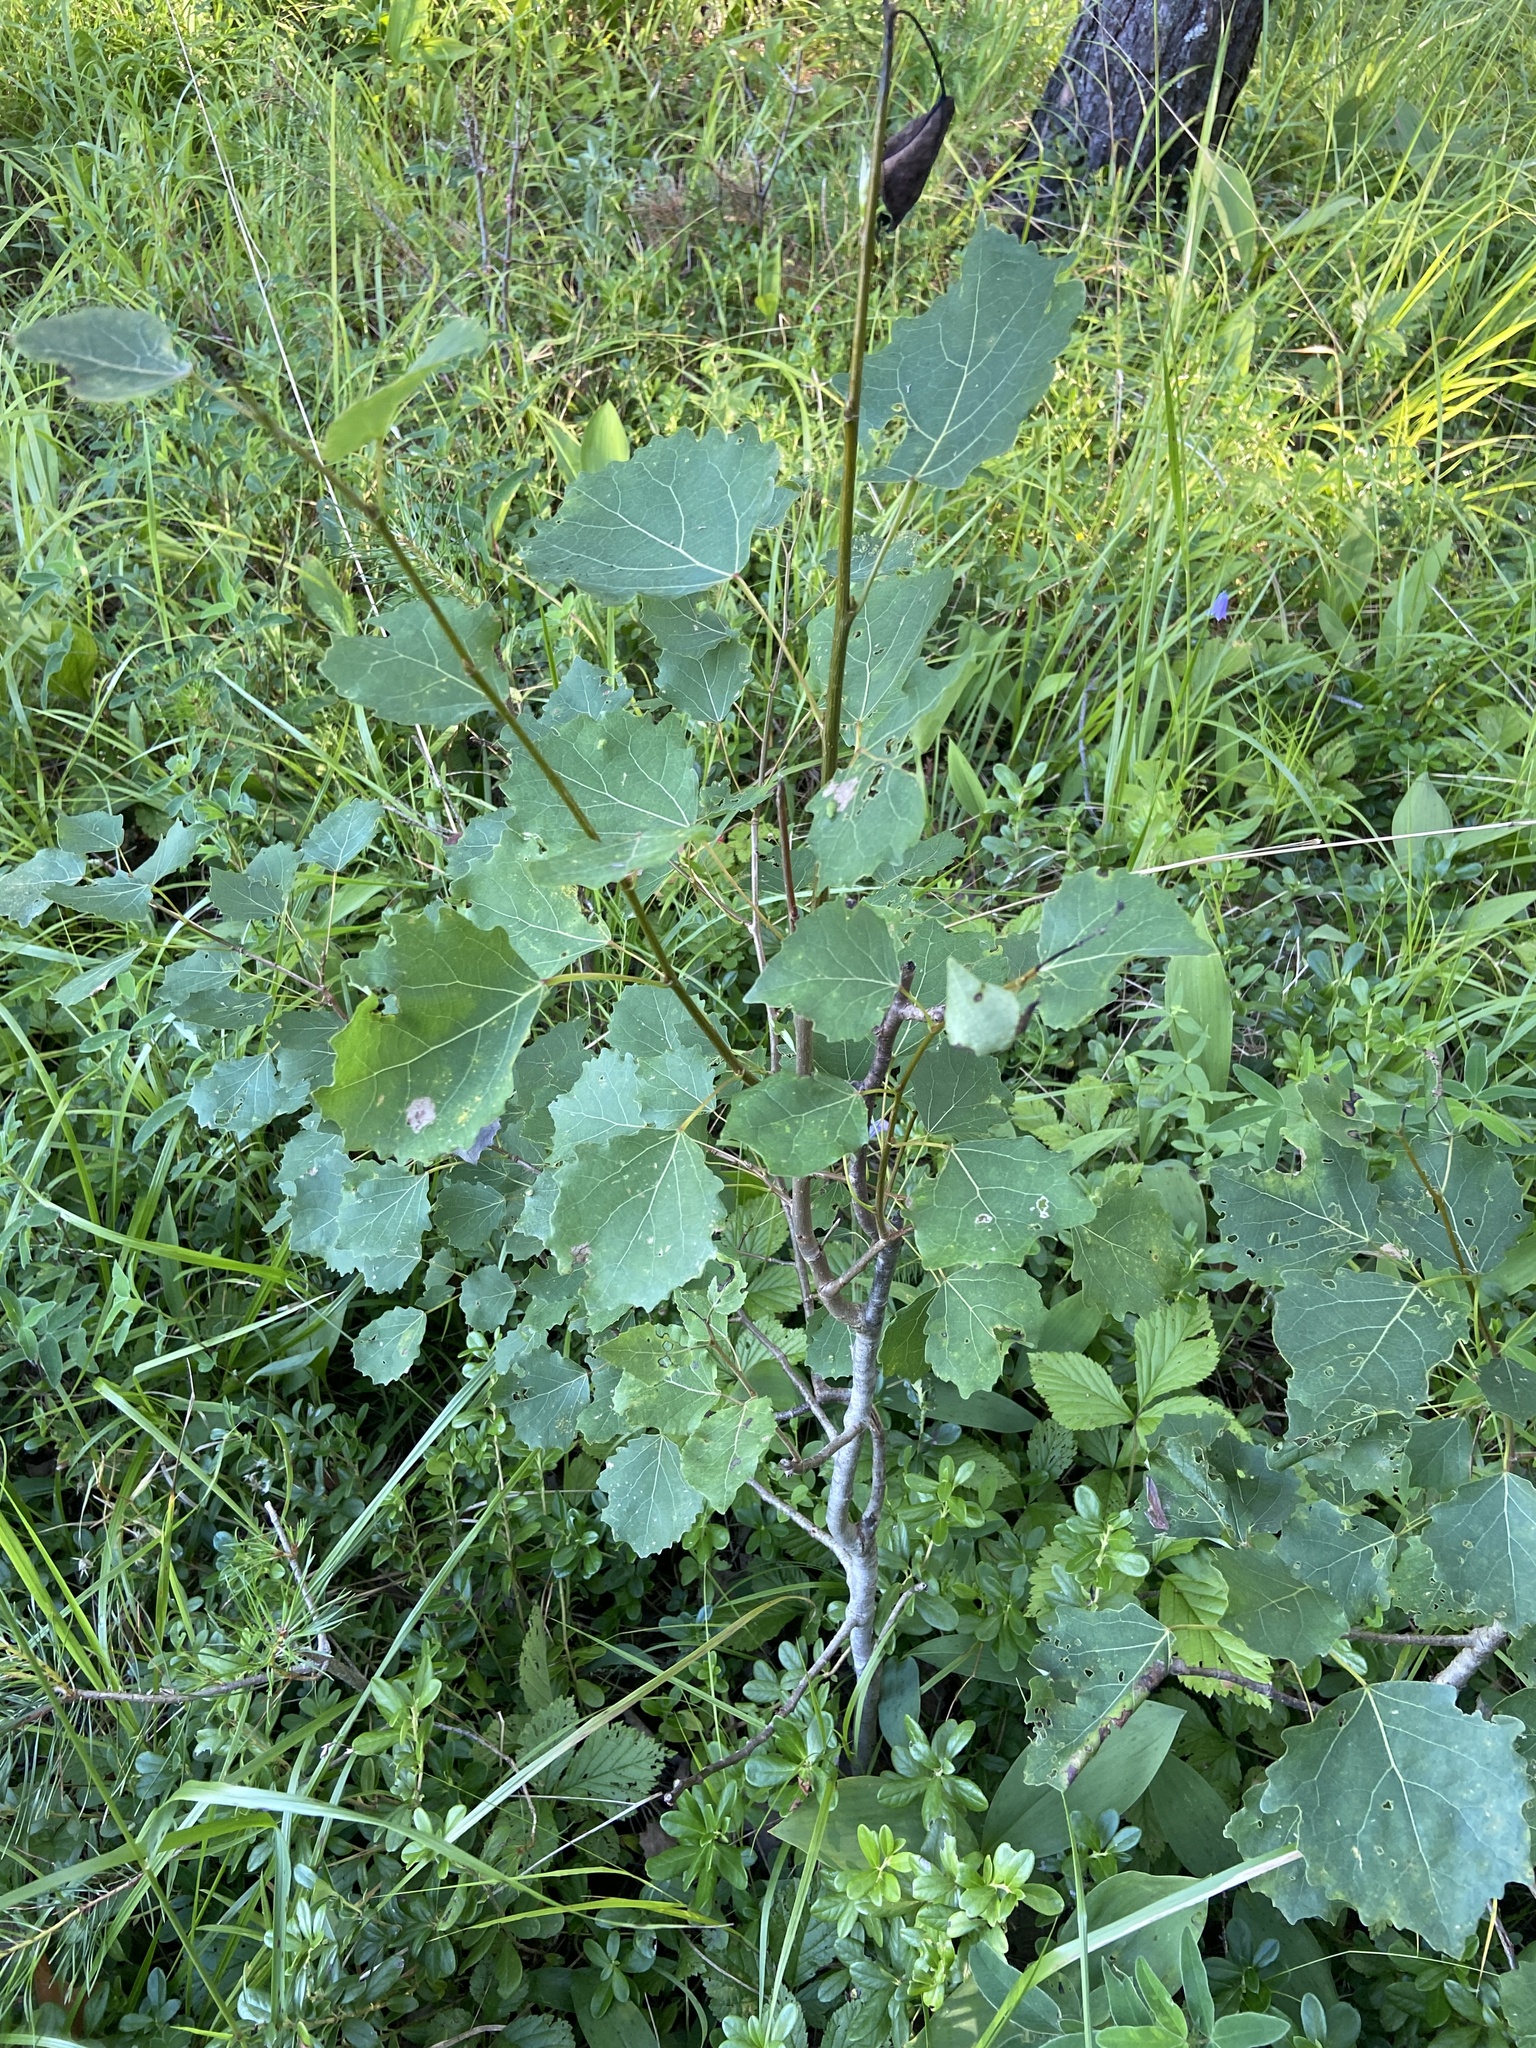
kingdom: Plantae
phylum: Tracheophyta
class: Magnoliopsida
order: Malpighiales
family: Salicaceae
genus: Populus
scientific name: Populus tremula
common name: European aspen
